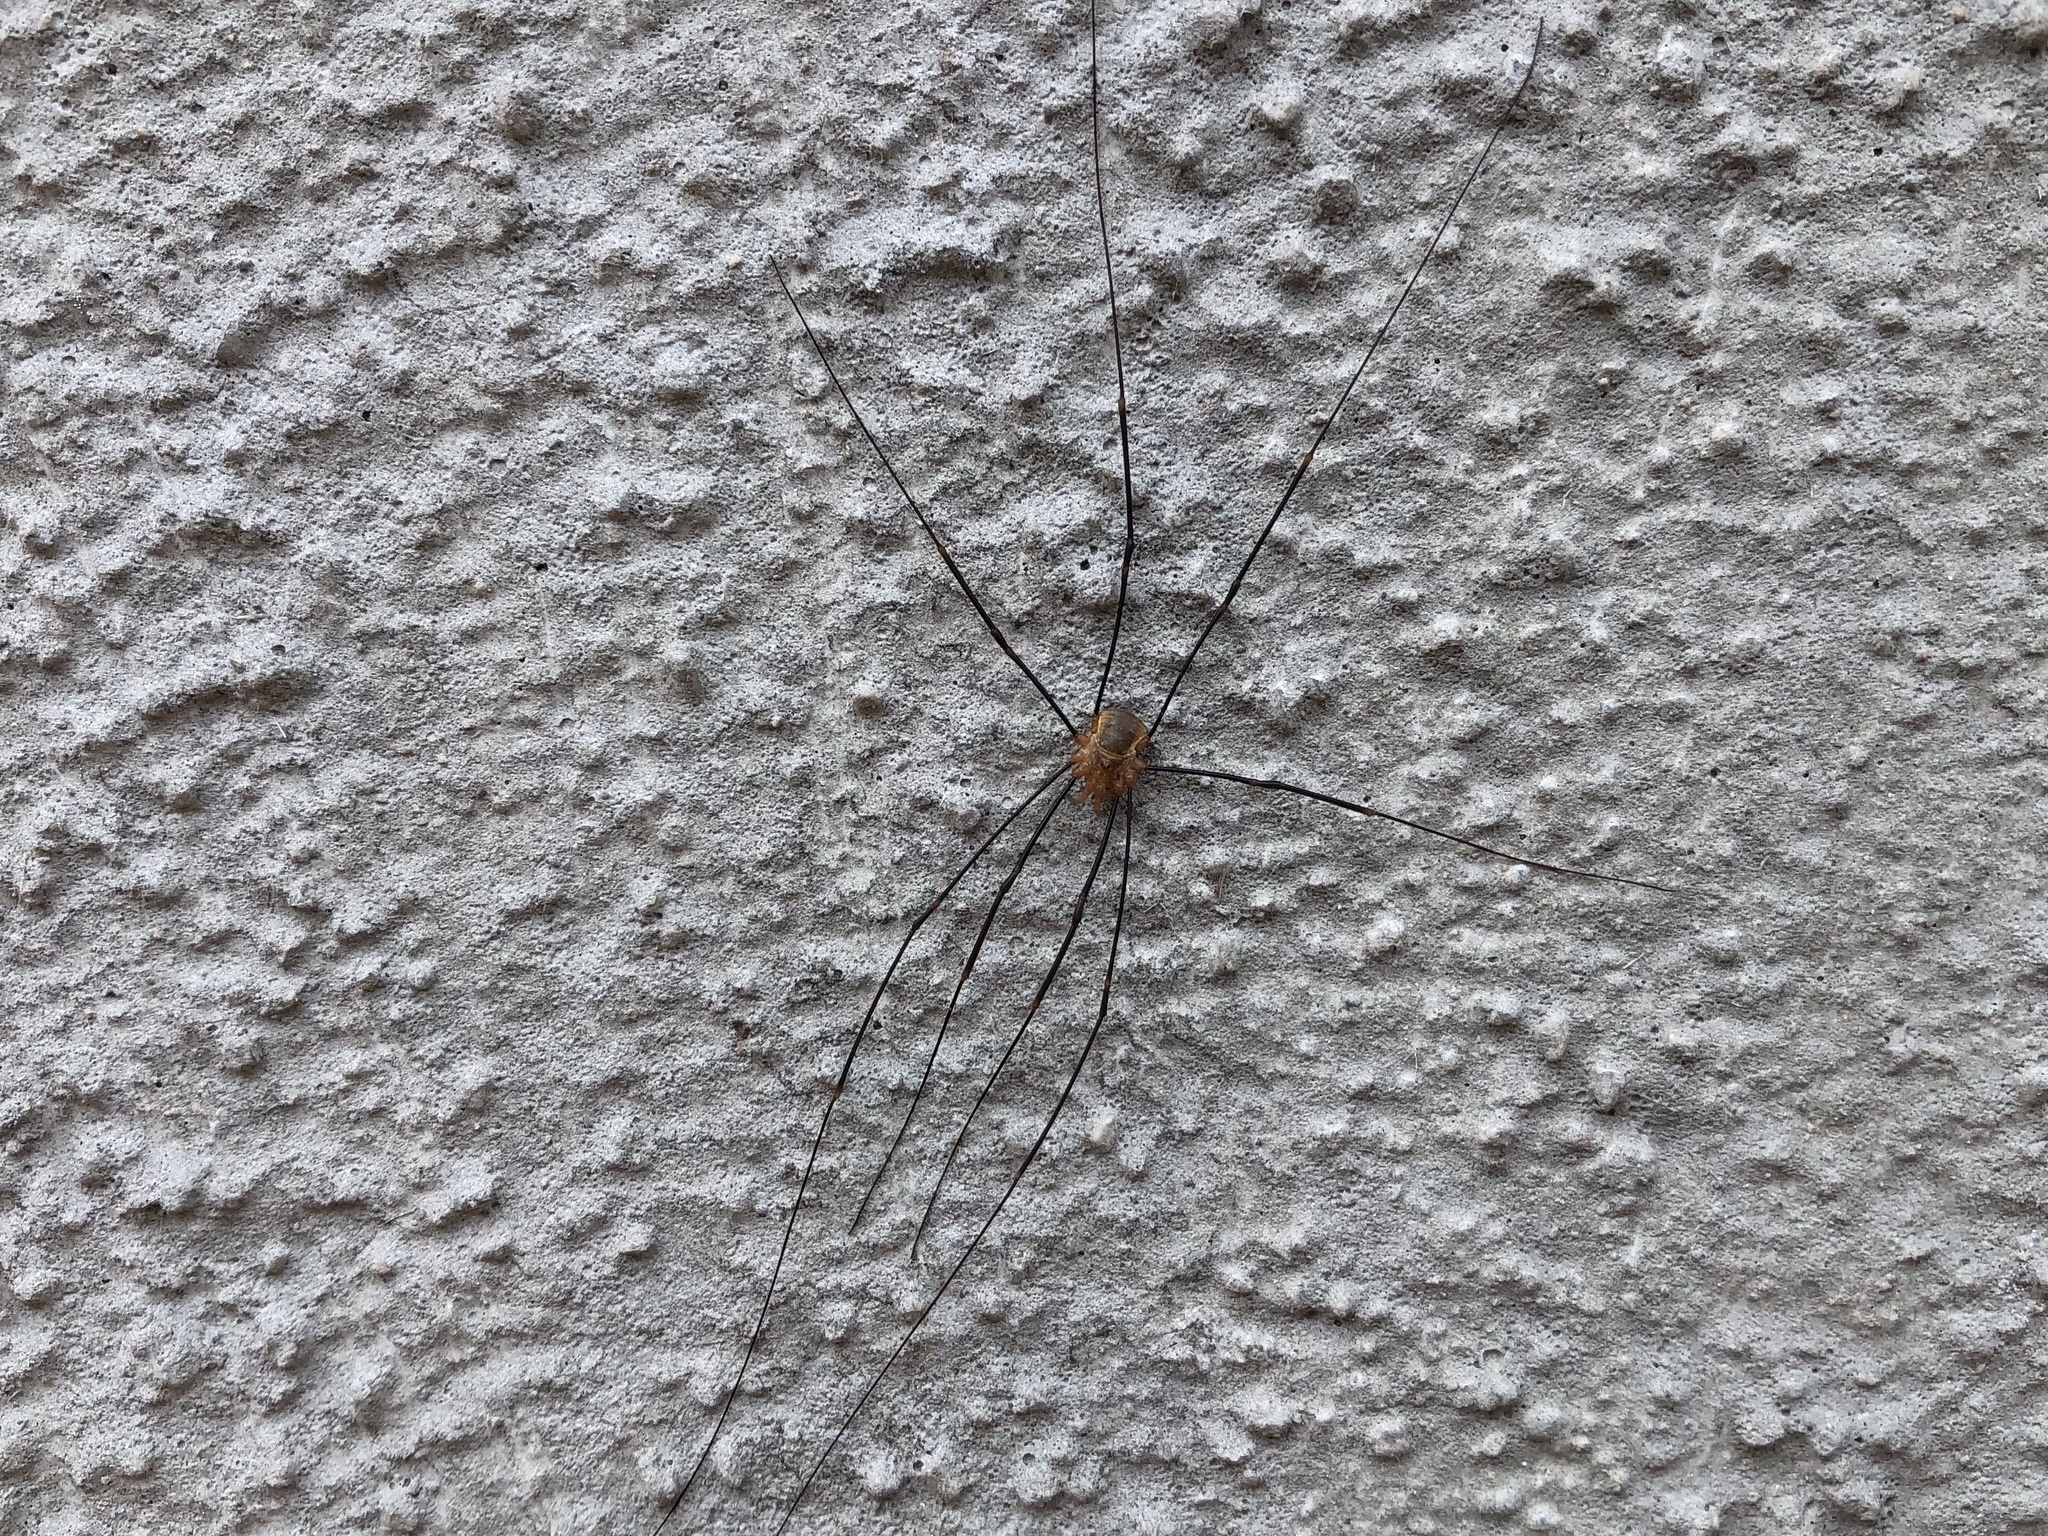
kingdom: Animalia
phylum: Arthropoda
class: Arachnida
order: Opiliones
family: Phalangiidae
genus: Opilio
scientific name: Opilio canestrinii
